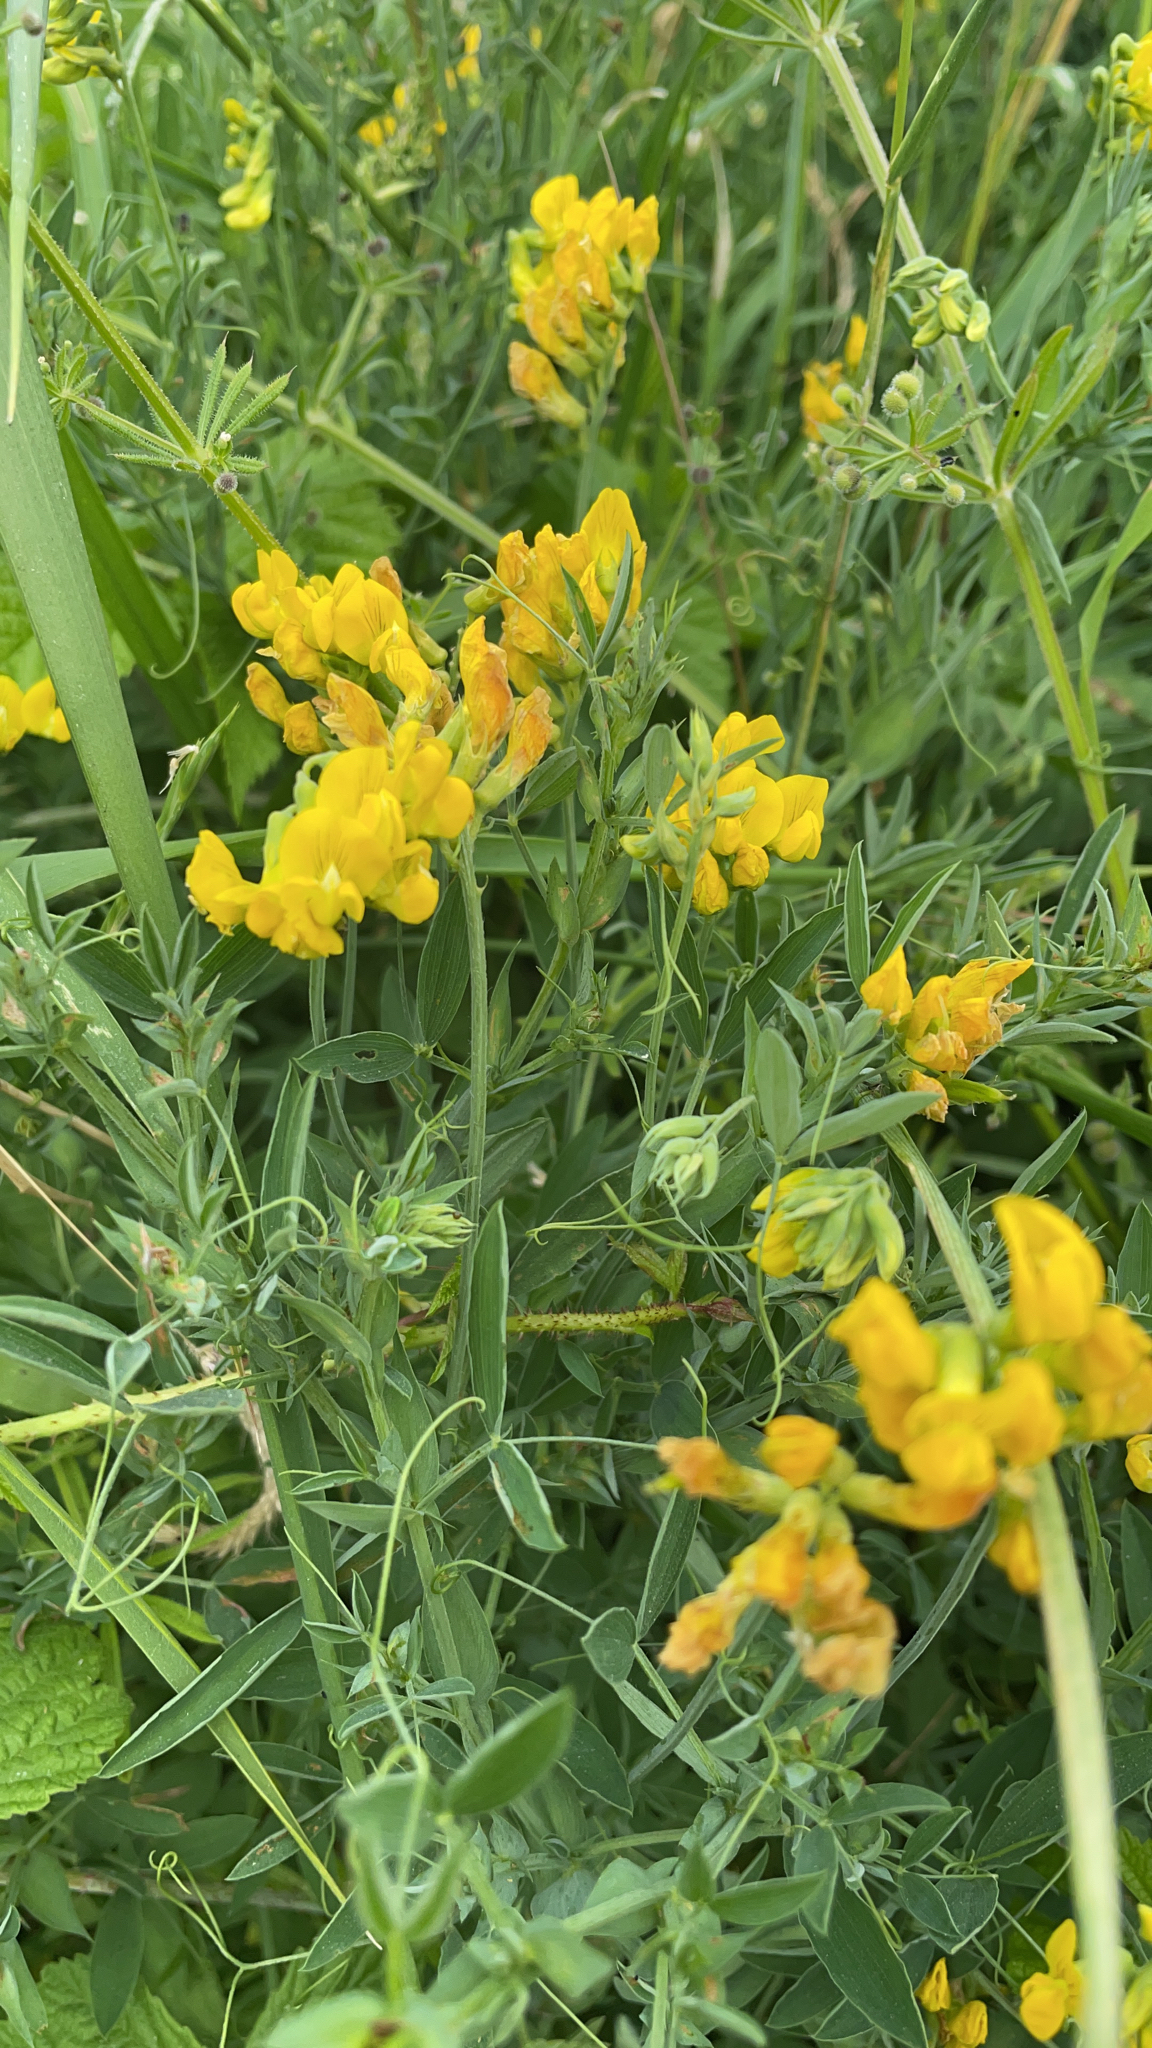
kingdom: Plantae
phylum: Tracheophyta
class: Magnoliopsida
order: Fabales
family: Fabaceae
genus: Lathyrus
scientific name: Lathyrus pratensis
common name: Meadow vetchling
